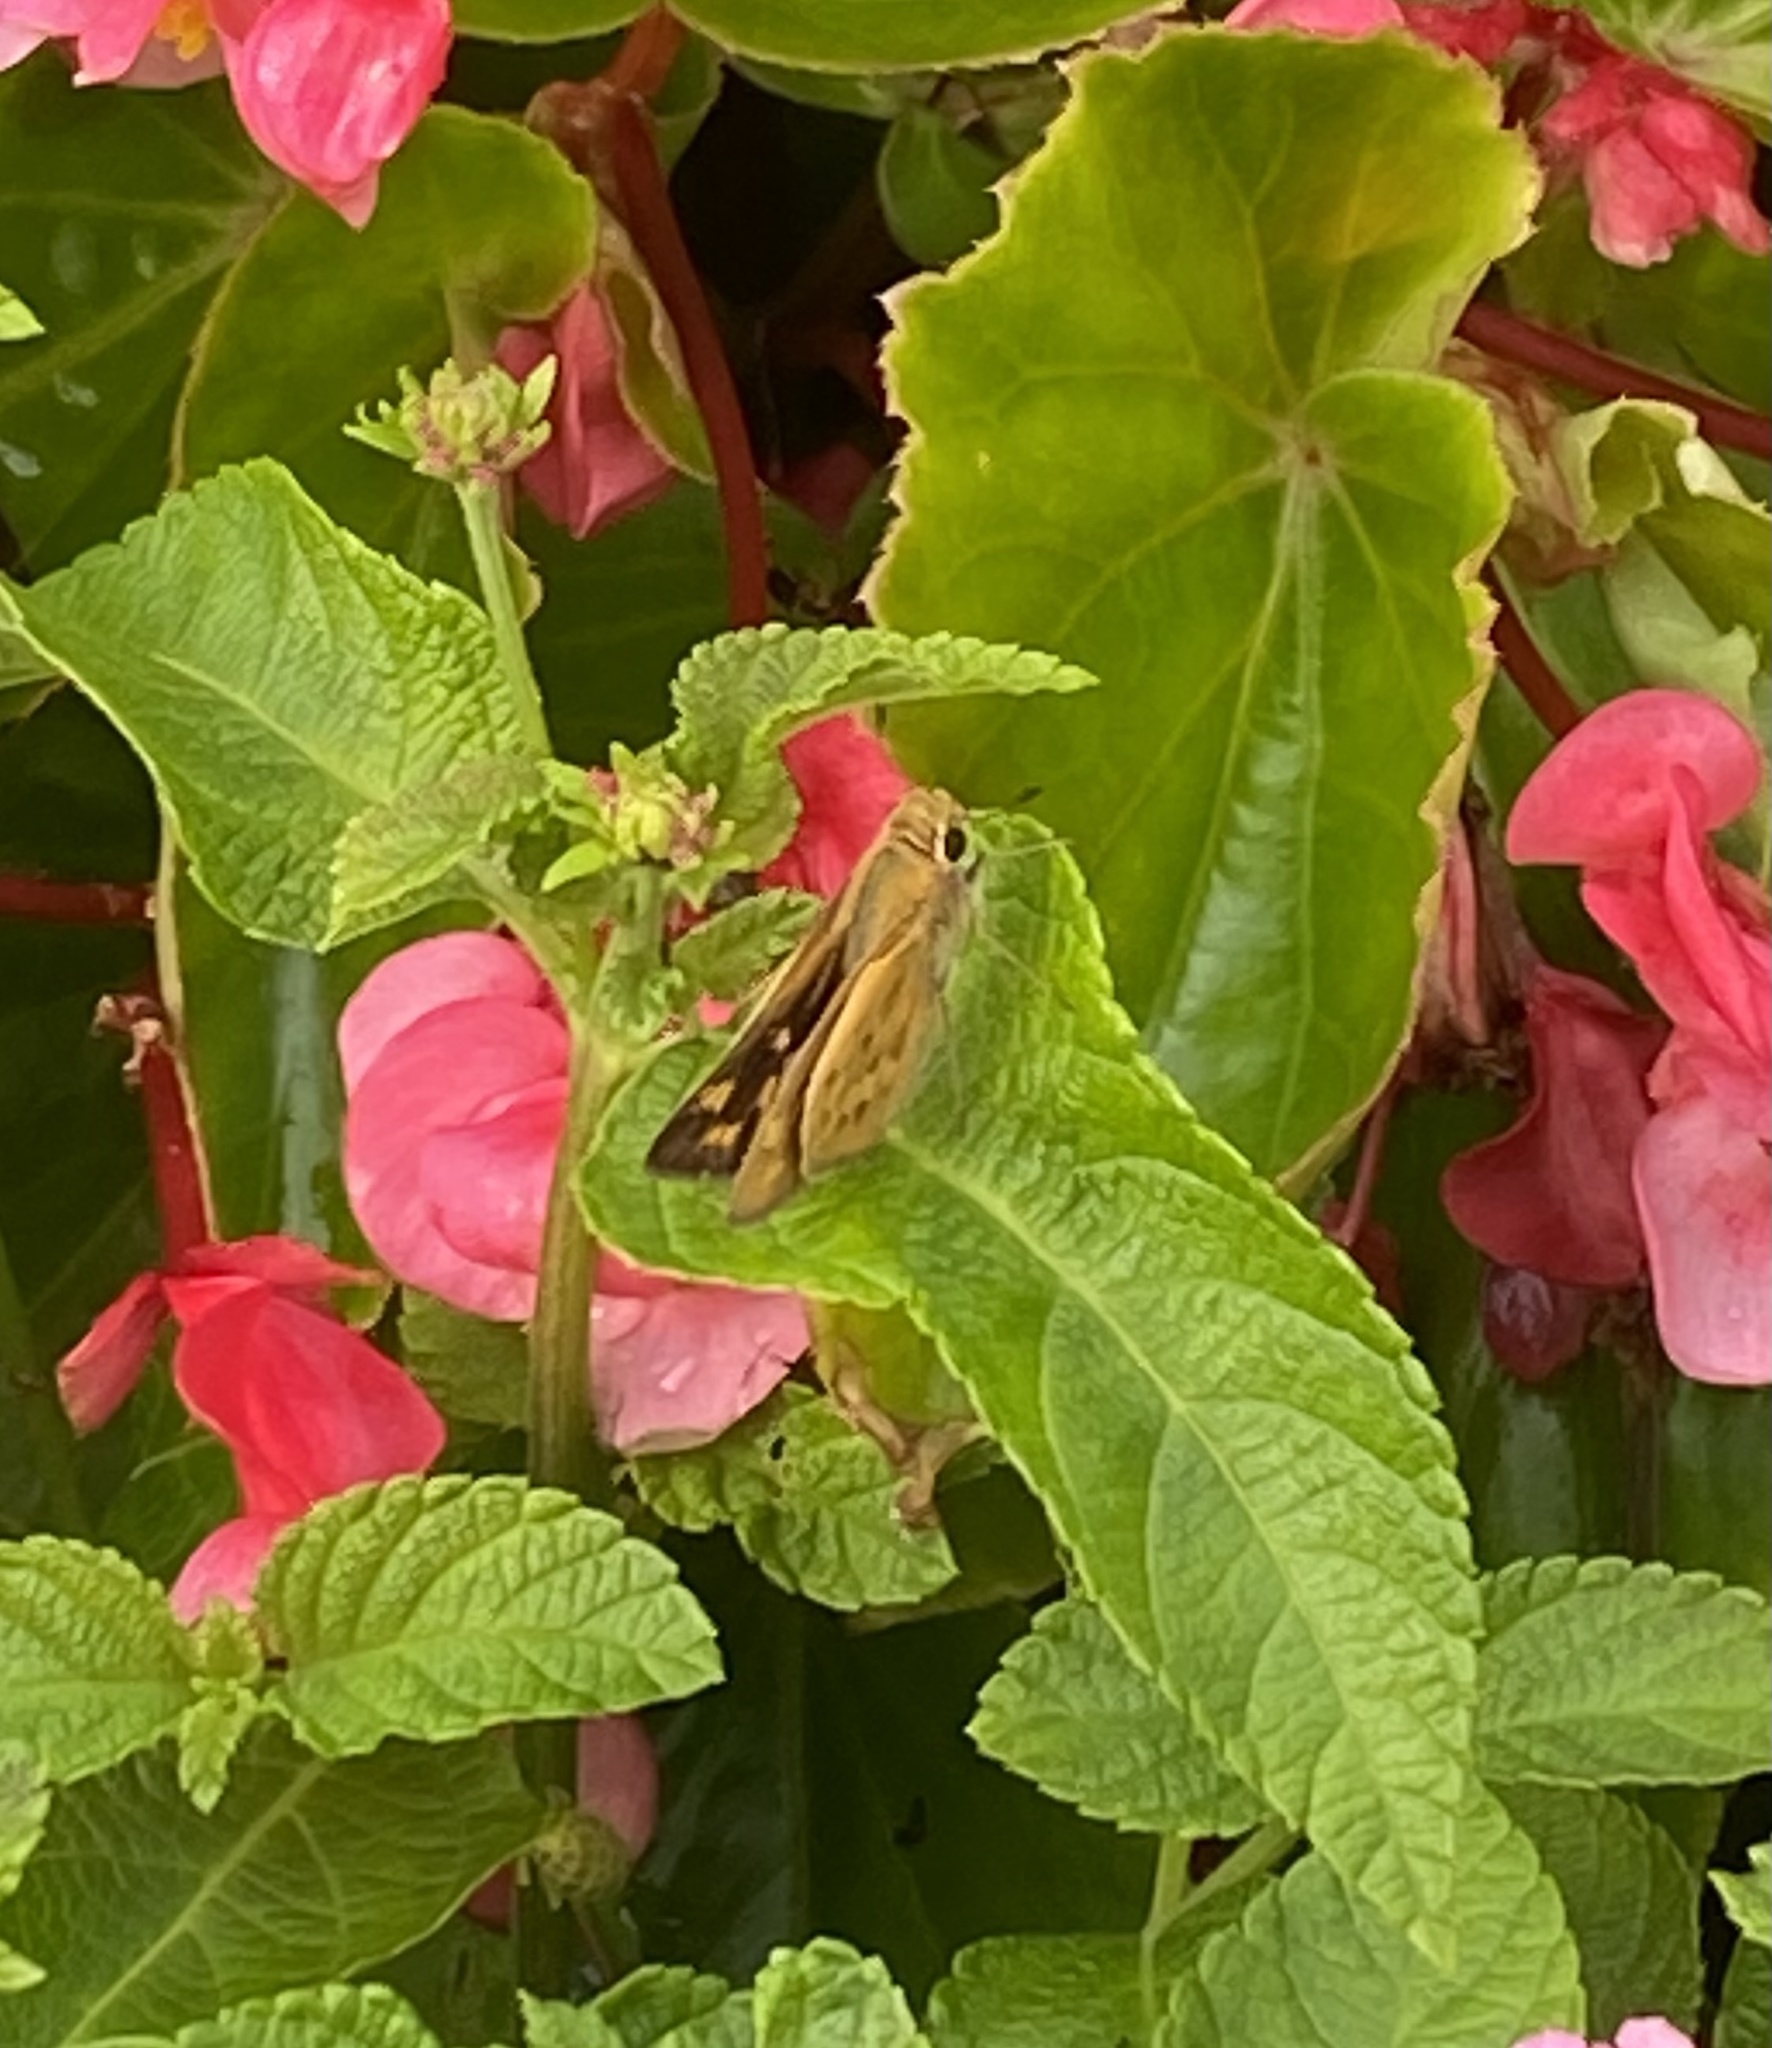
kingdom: Animalia
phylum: Arthropoda
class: Insecta
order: Lepidoptera
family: Hesperiidae
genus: Hylephila
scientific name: Hylephila phyleus
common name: Fiery skipper
